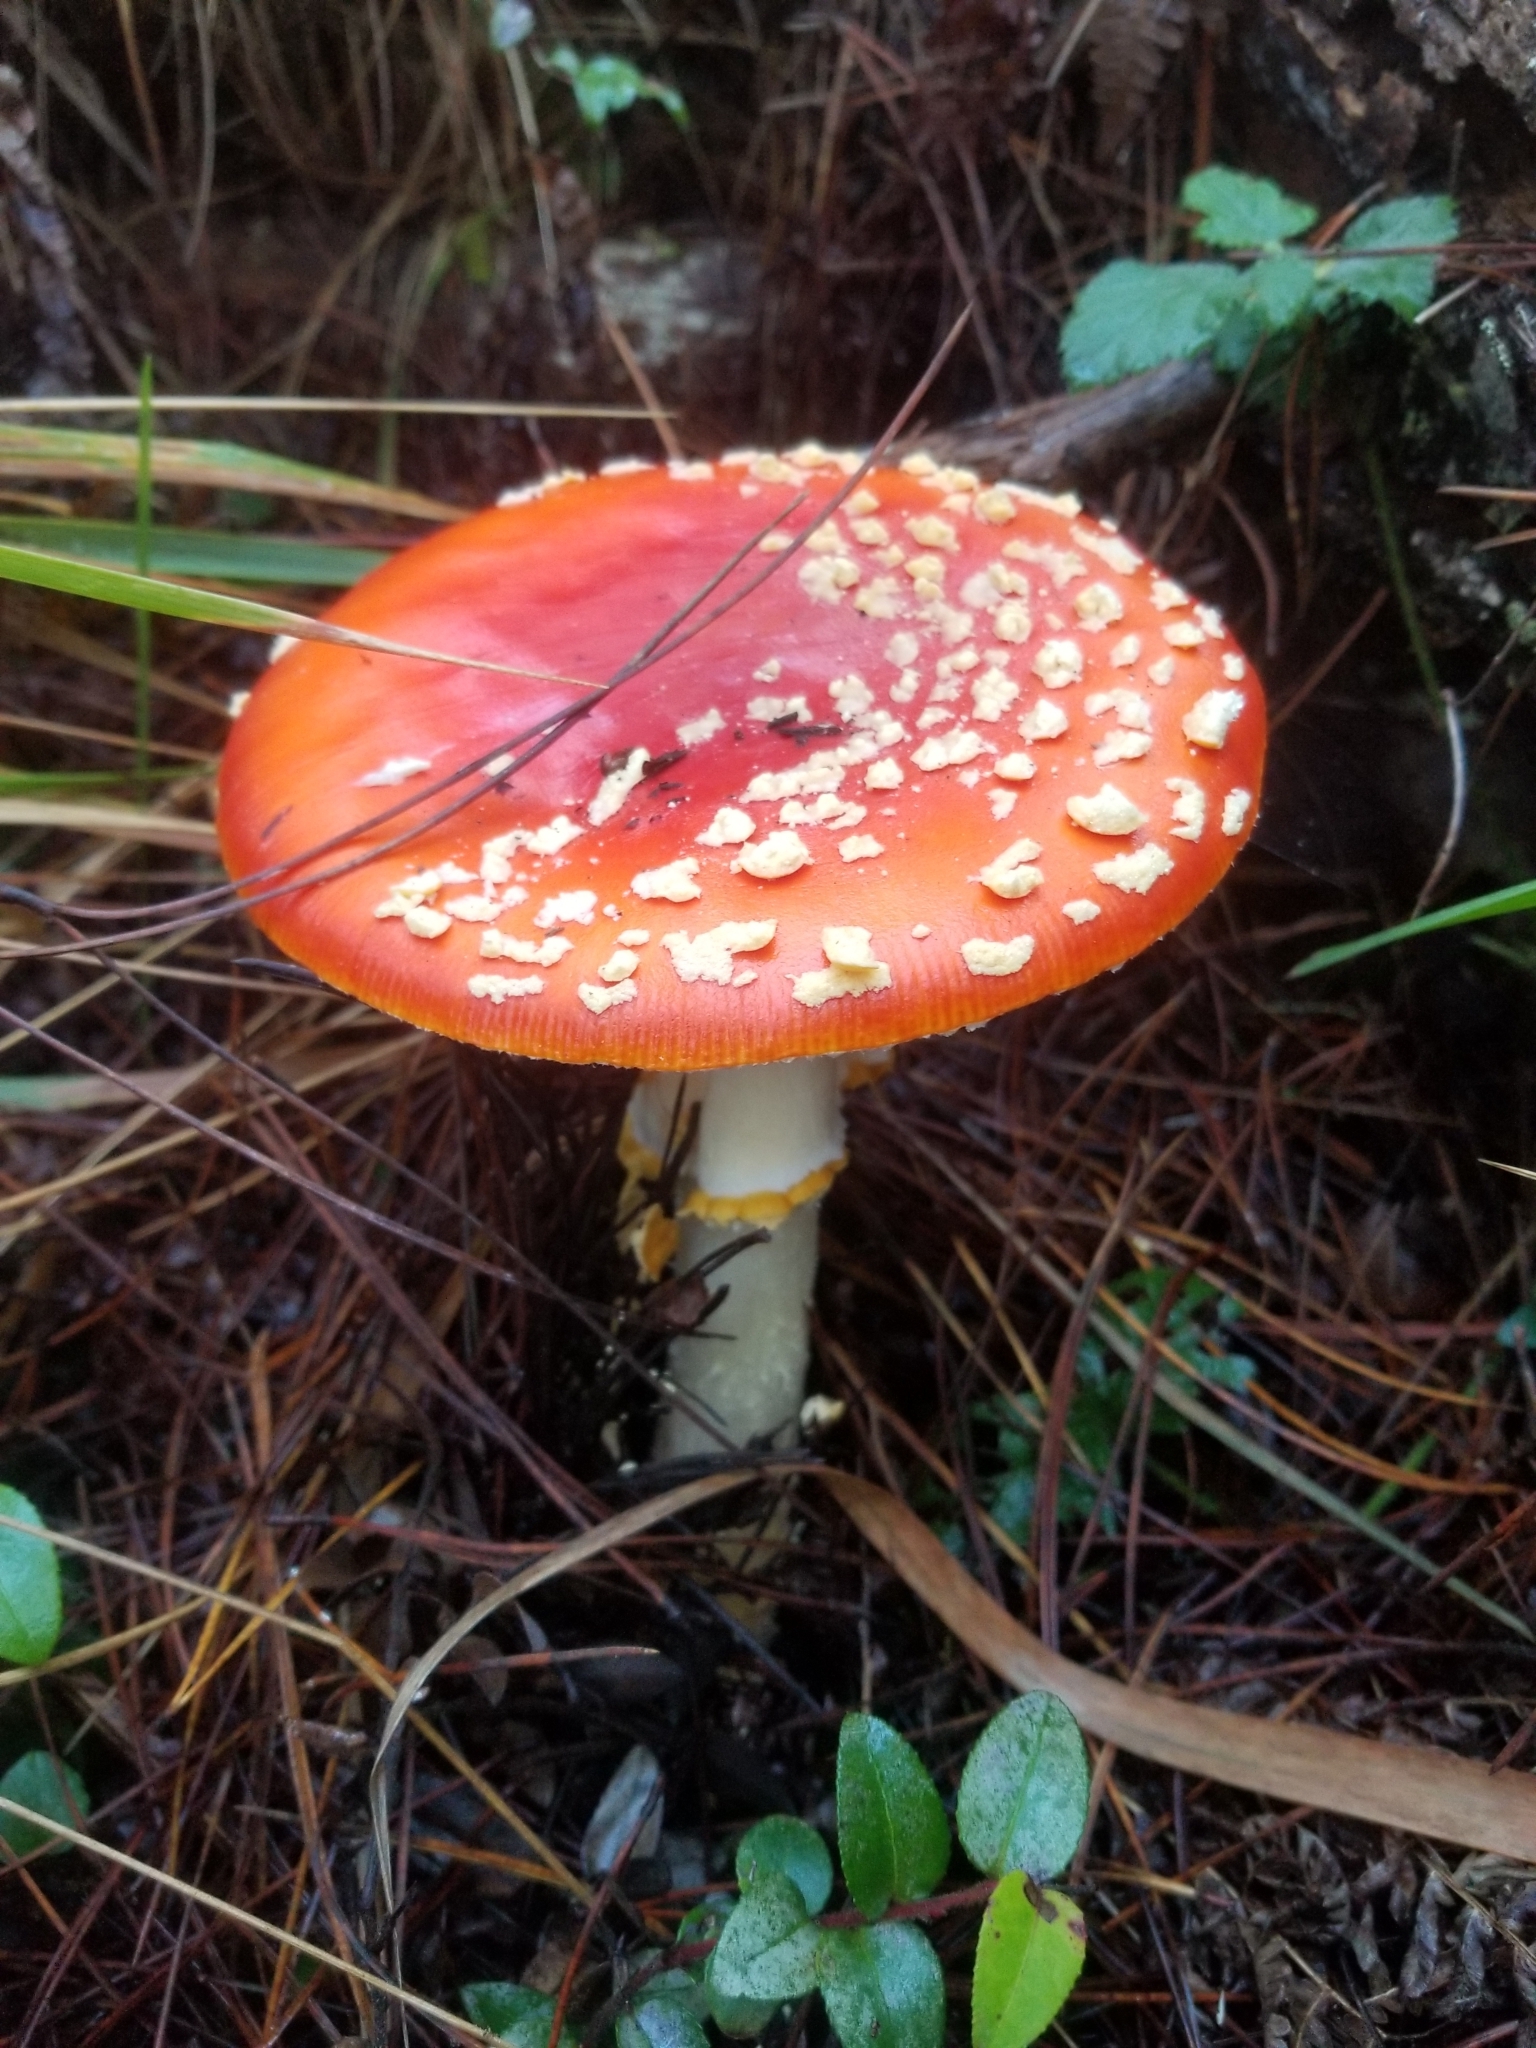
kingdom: Fungi
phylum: Basidiomycota
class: Agaricomycetes
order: Agaricales
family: Amanitaceae
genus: Amanita
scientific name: Amanita muscaria
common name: Fly agaric
